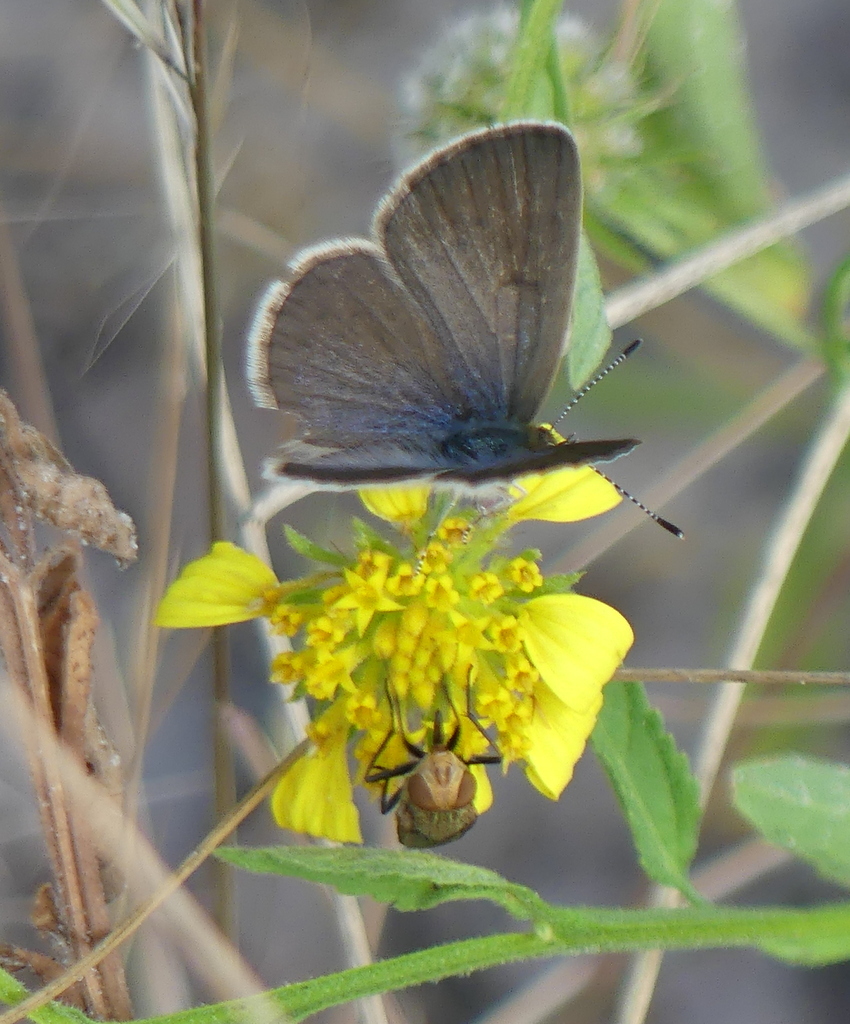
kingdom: Animalia
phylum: Arthropoda
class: Insecta
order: Lepidoptera
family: Lycaenidae
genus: Zizeeria
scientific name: Zizeeria knysna
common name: African grass blue
